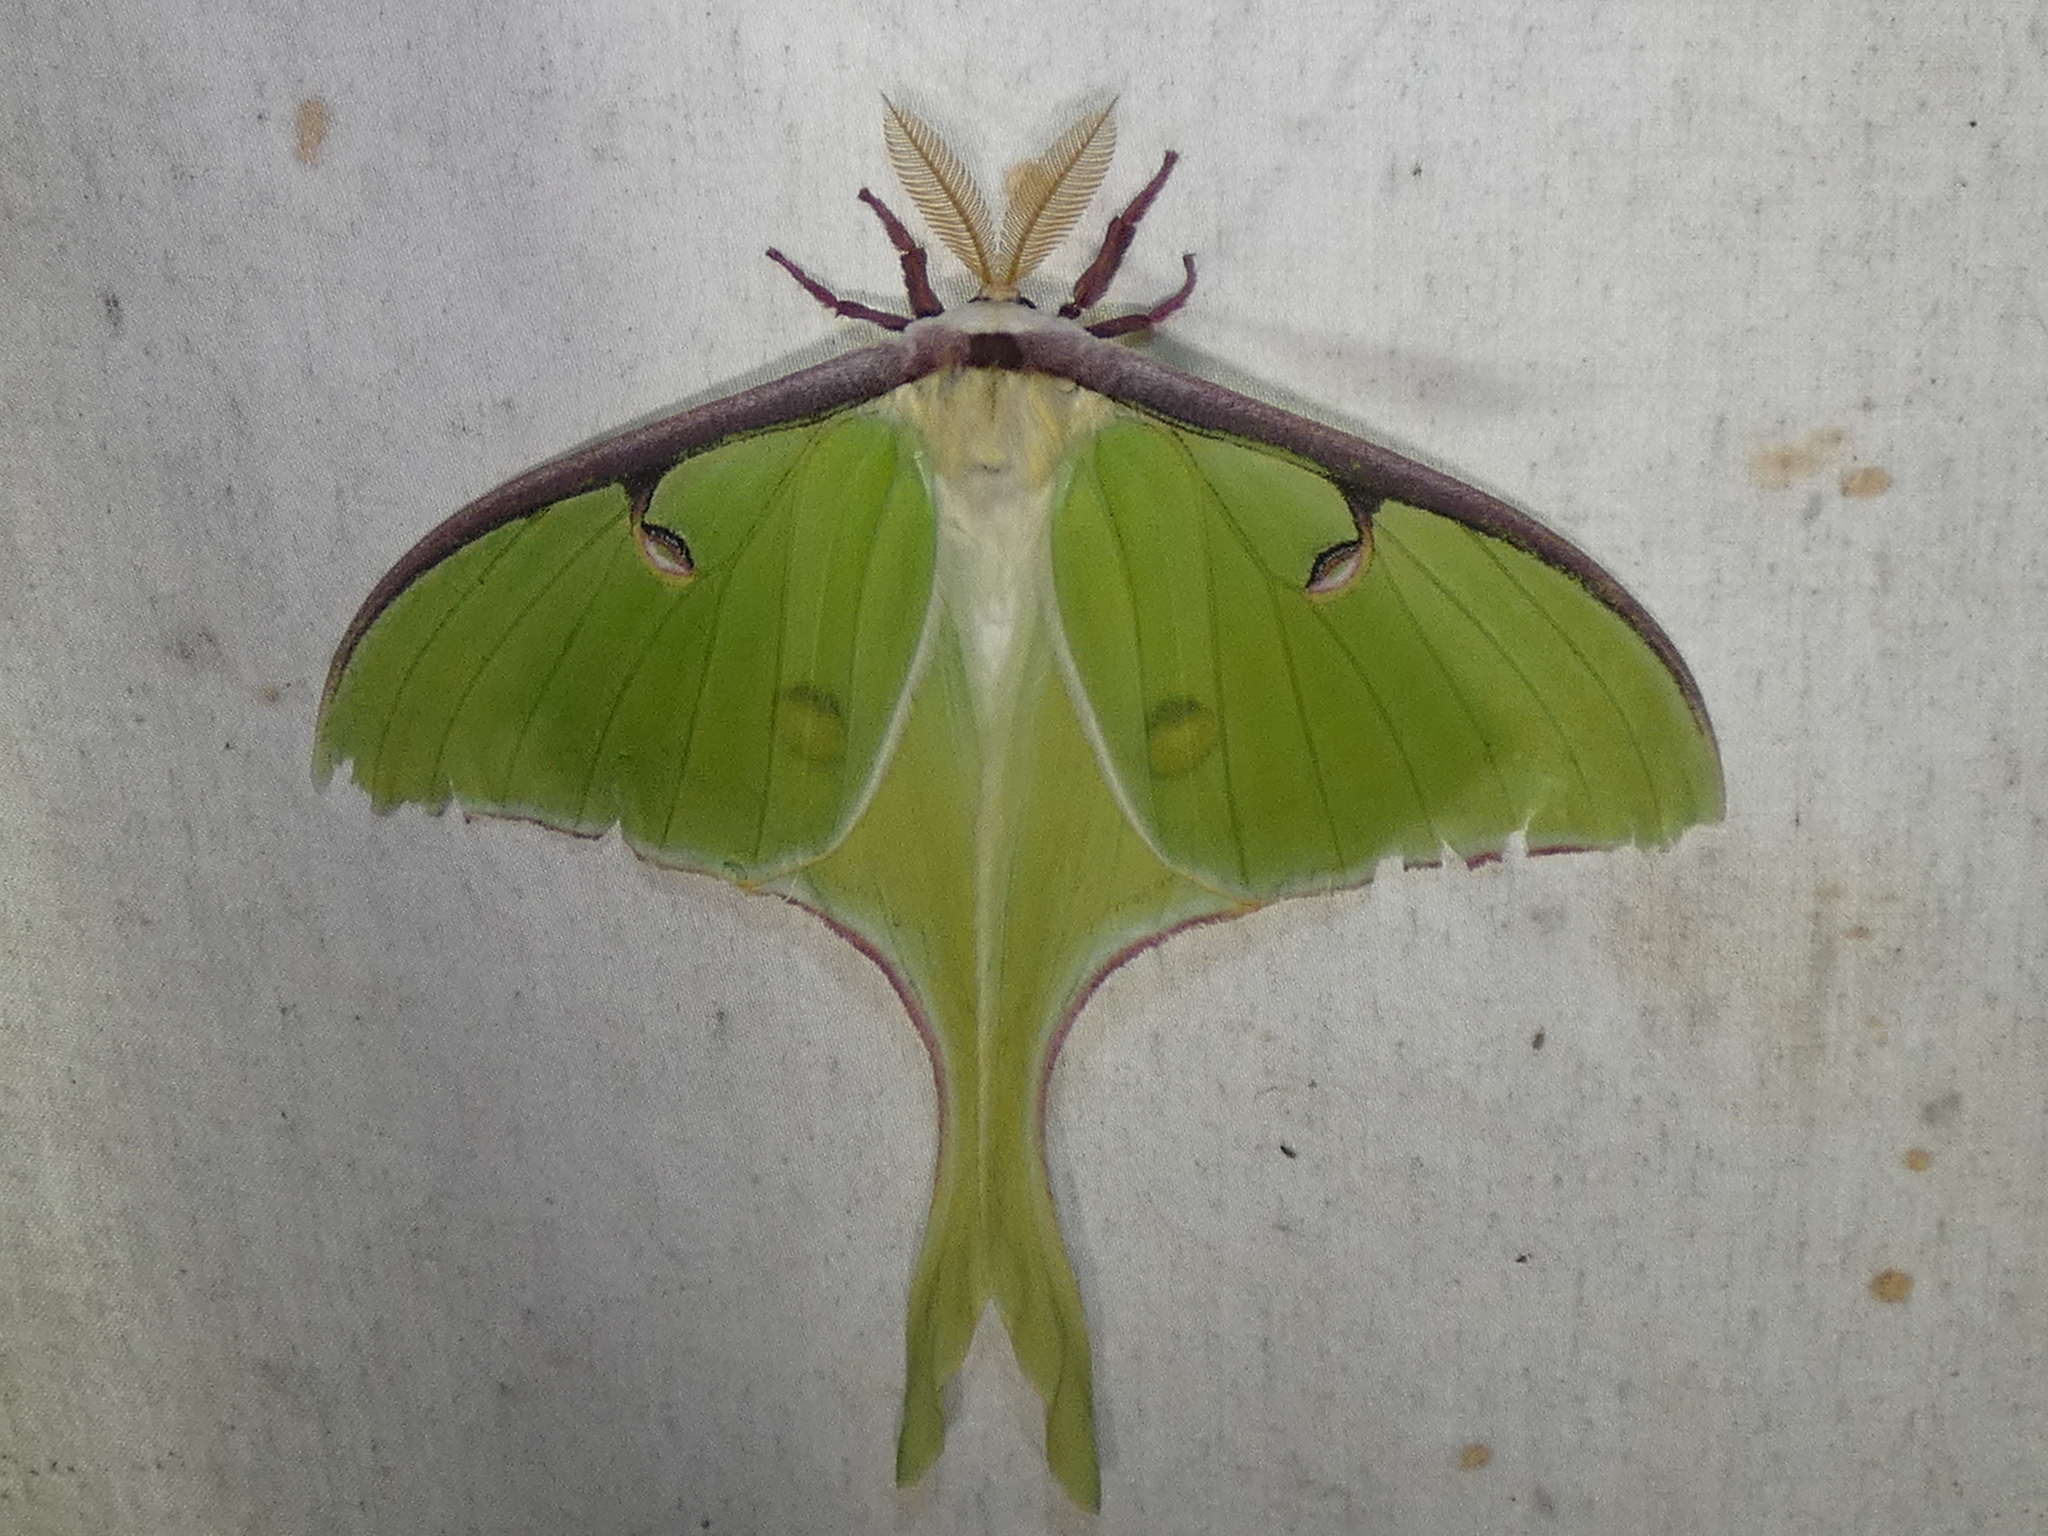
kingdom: Animalia
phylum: Arthropoda
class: Insecta
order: Lepidoptera
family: Saturniidae
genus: Actias
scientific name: Actias luna
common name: Luna moth
